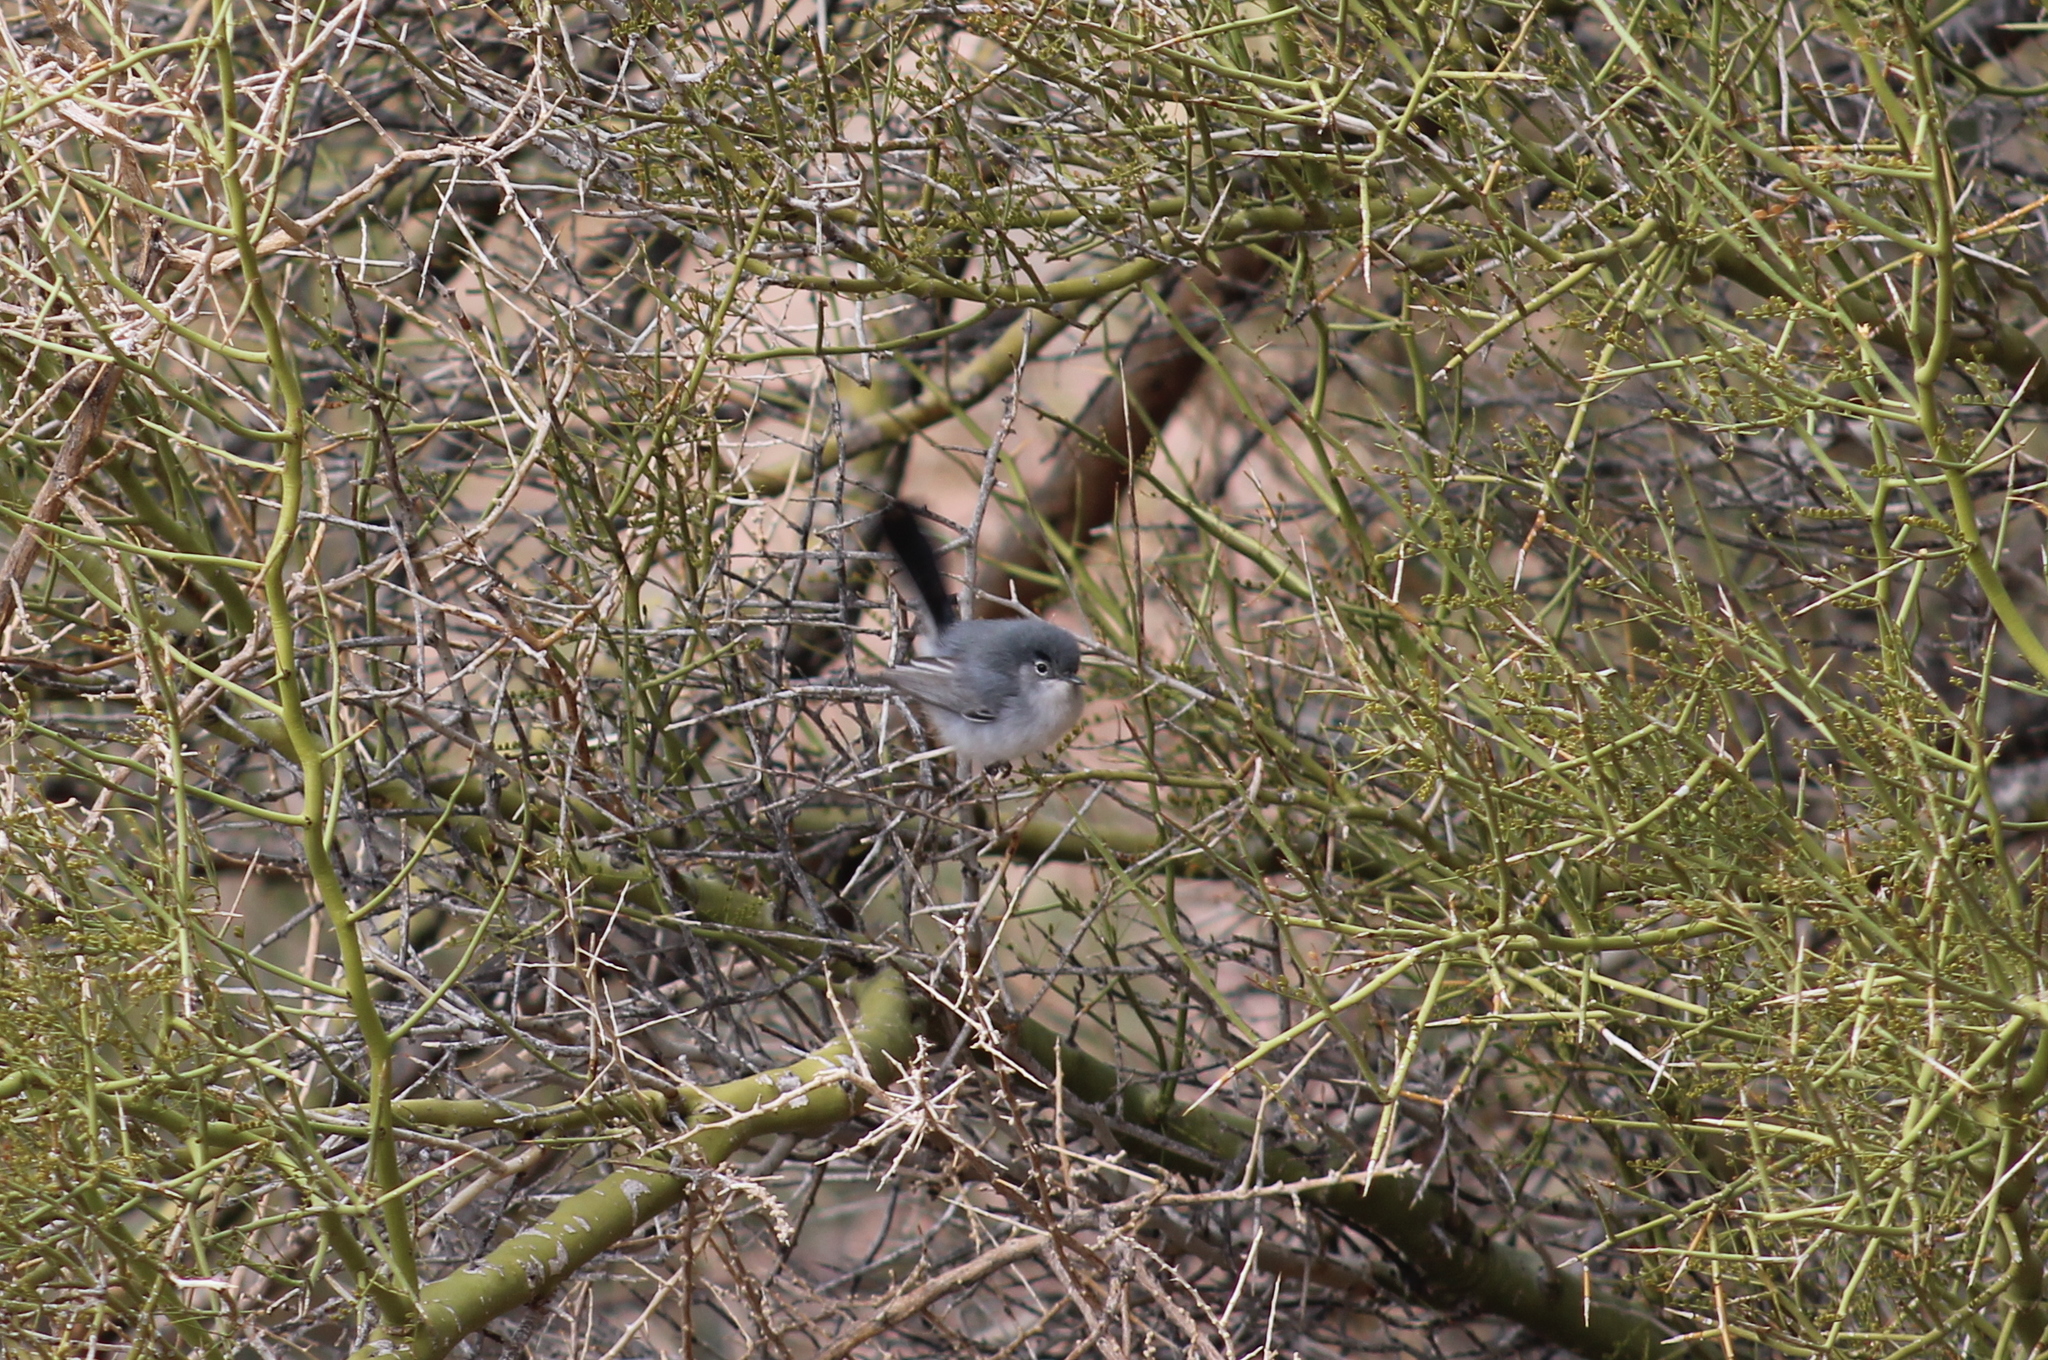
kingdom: Animalia
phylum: Chordata
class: Aves
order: Passeriformes
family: Polioptilidae
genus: Polioptila
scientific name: Polioptila melanura
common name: Black-tailed gnatcatcher
